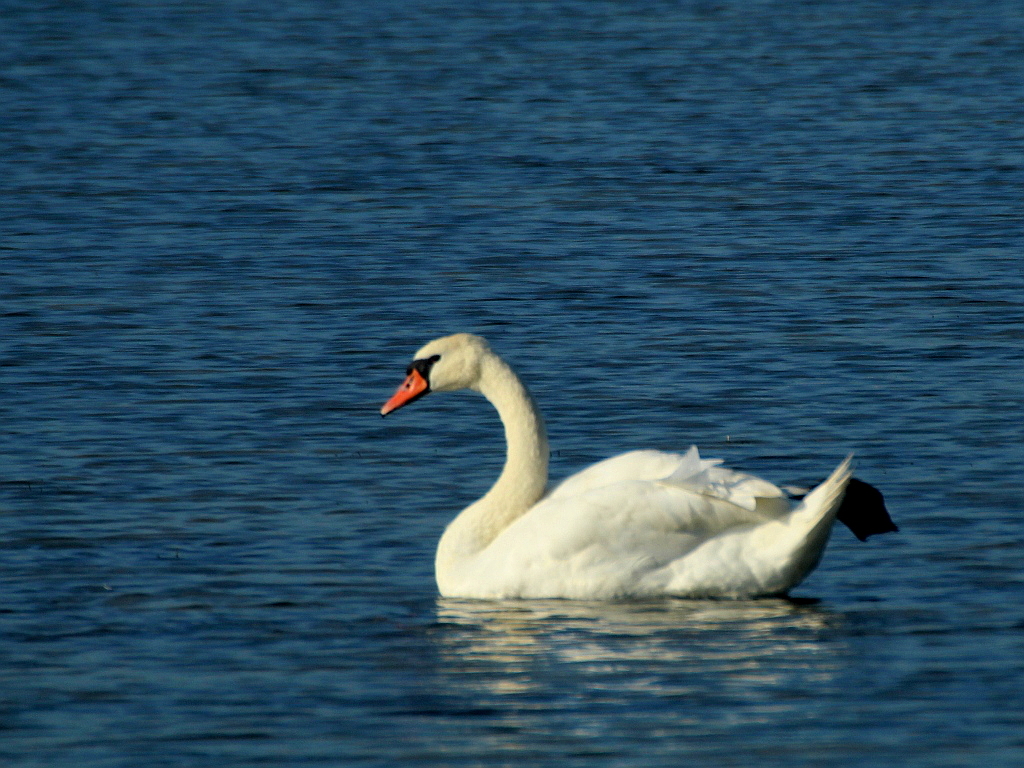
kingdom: Animalia
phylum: Chordata
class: Aves
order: Anseriformes
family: Anatidae
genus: Cygnus
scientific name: Cygnus olor
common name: Mute swan
